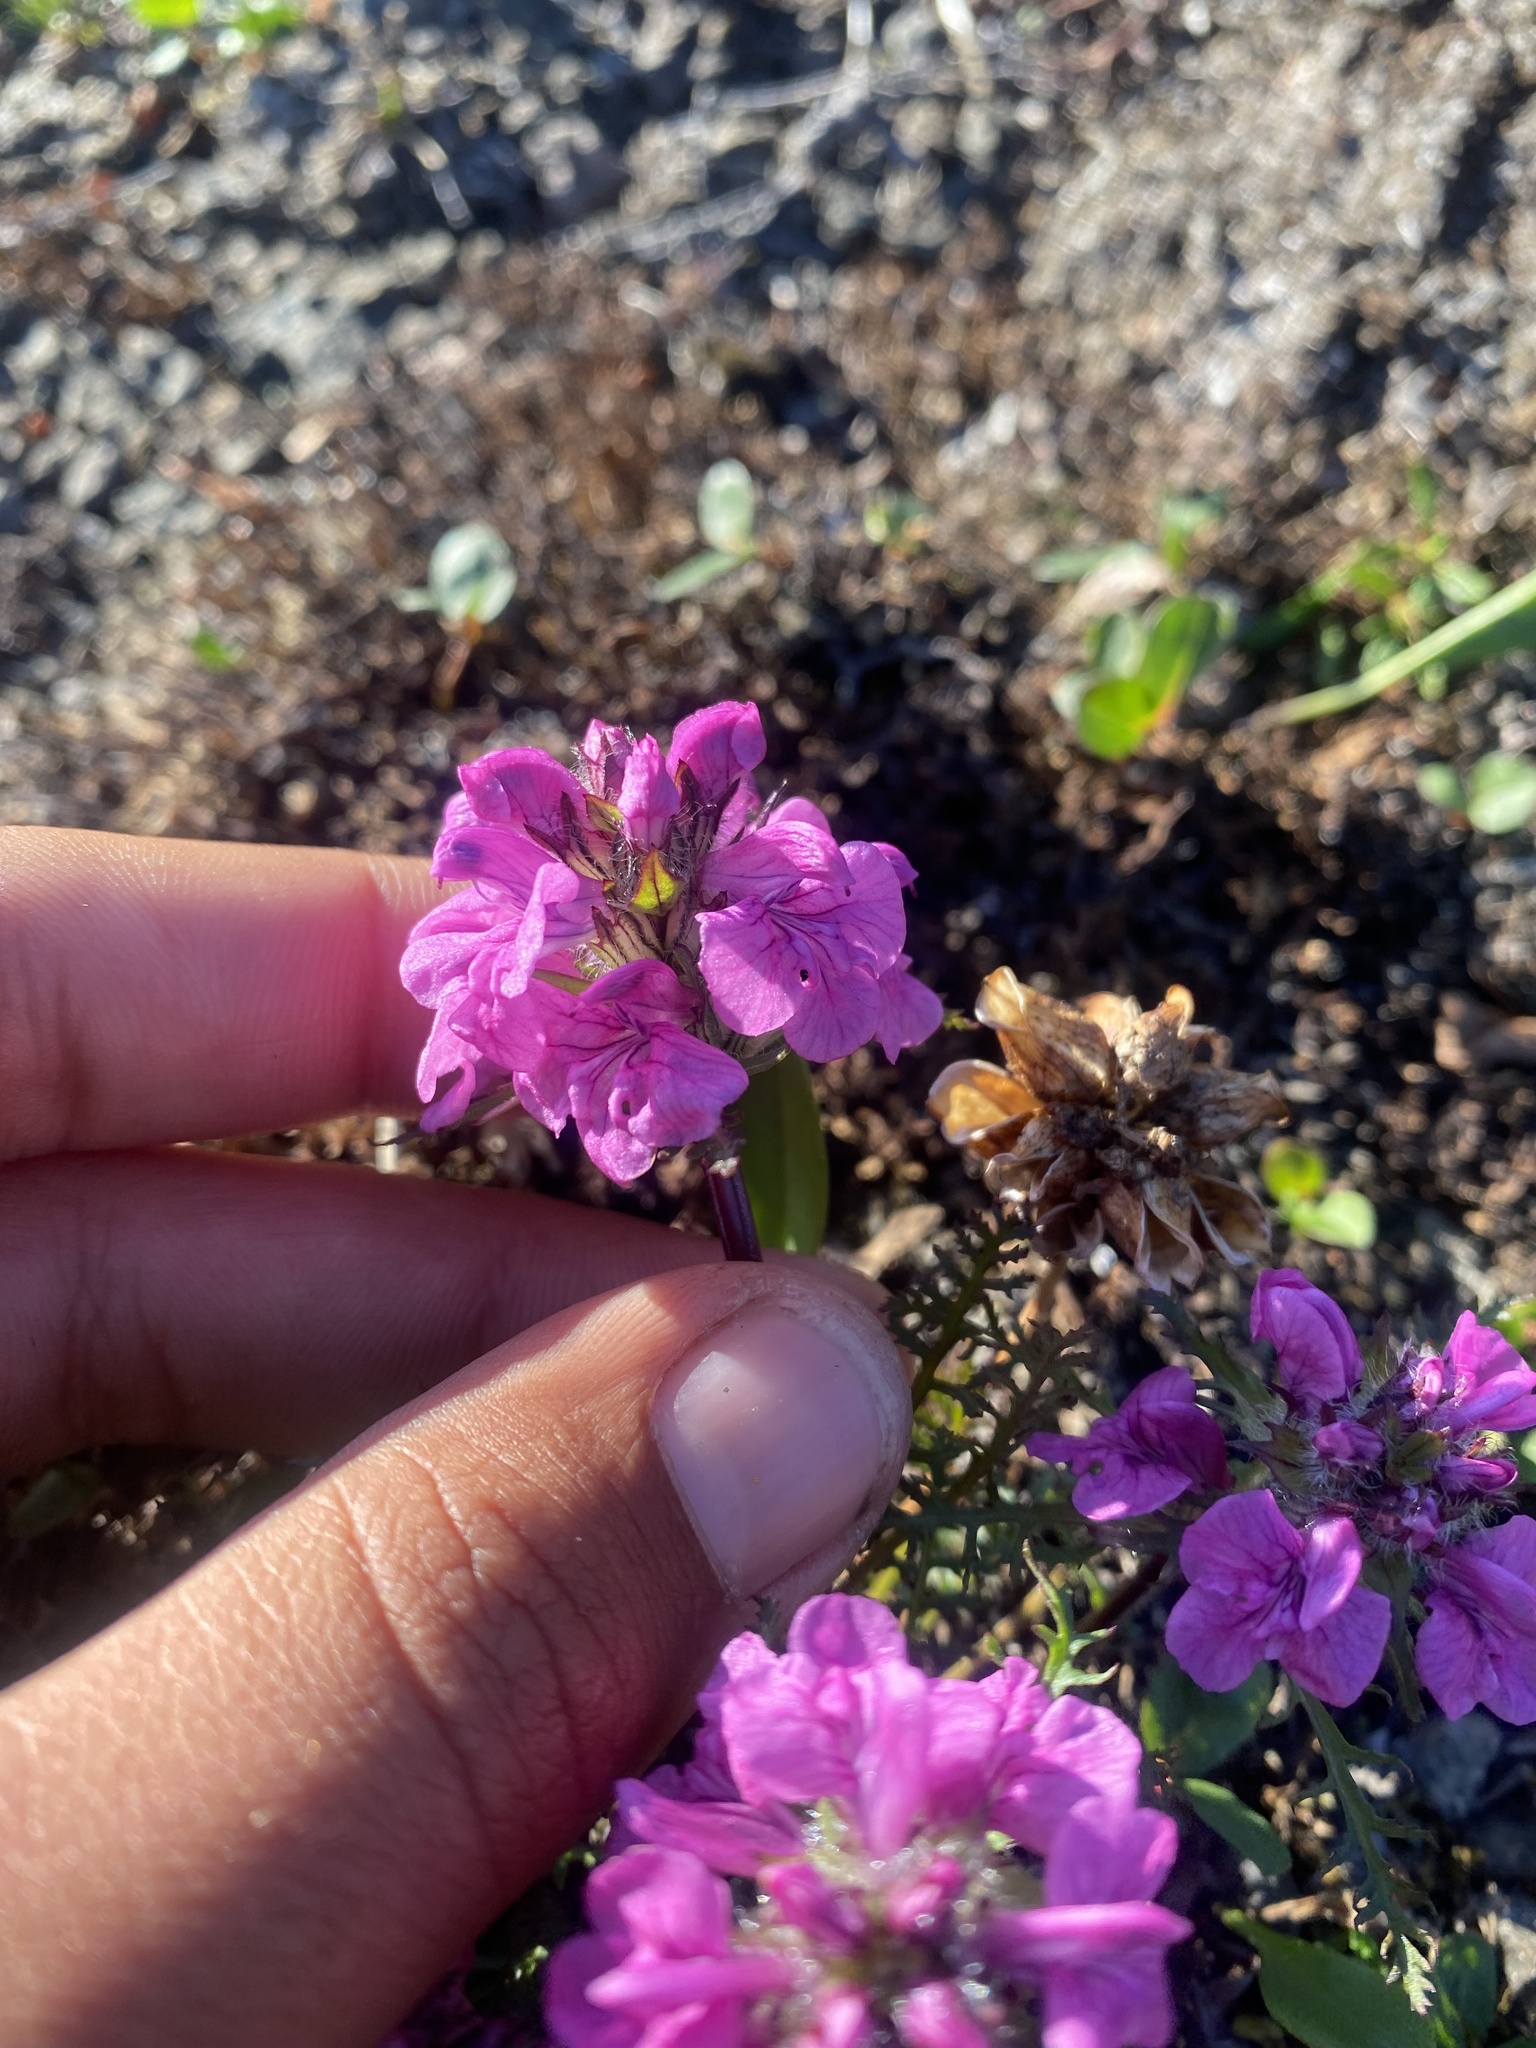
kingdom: Plantae
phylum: Tracheophyta
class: Magnoliopsida
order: Lamiales
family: Orobanchaceae
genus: Pedicularis
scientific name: Pedicularis amoena
